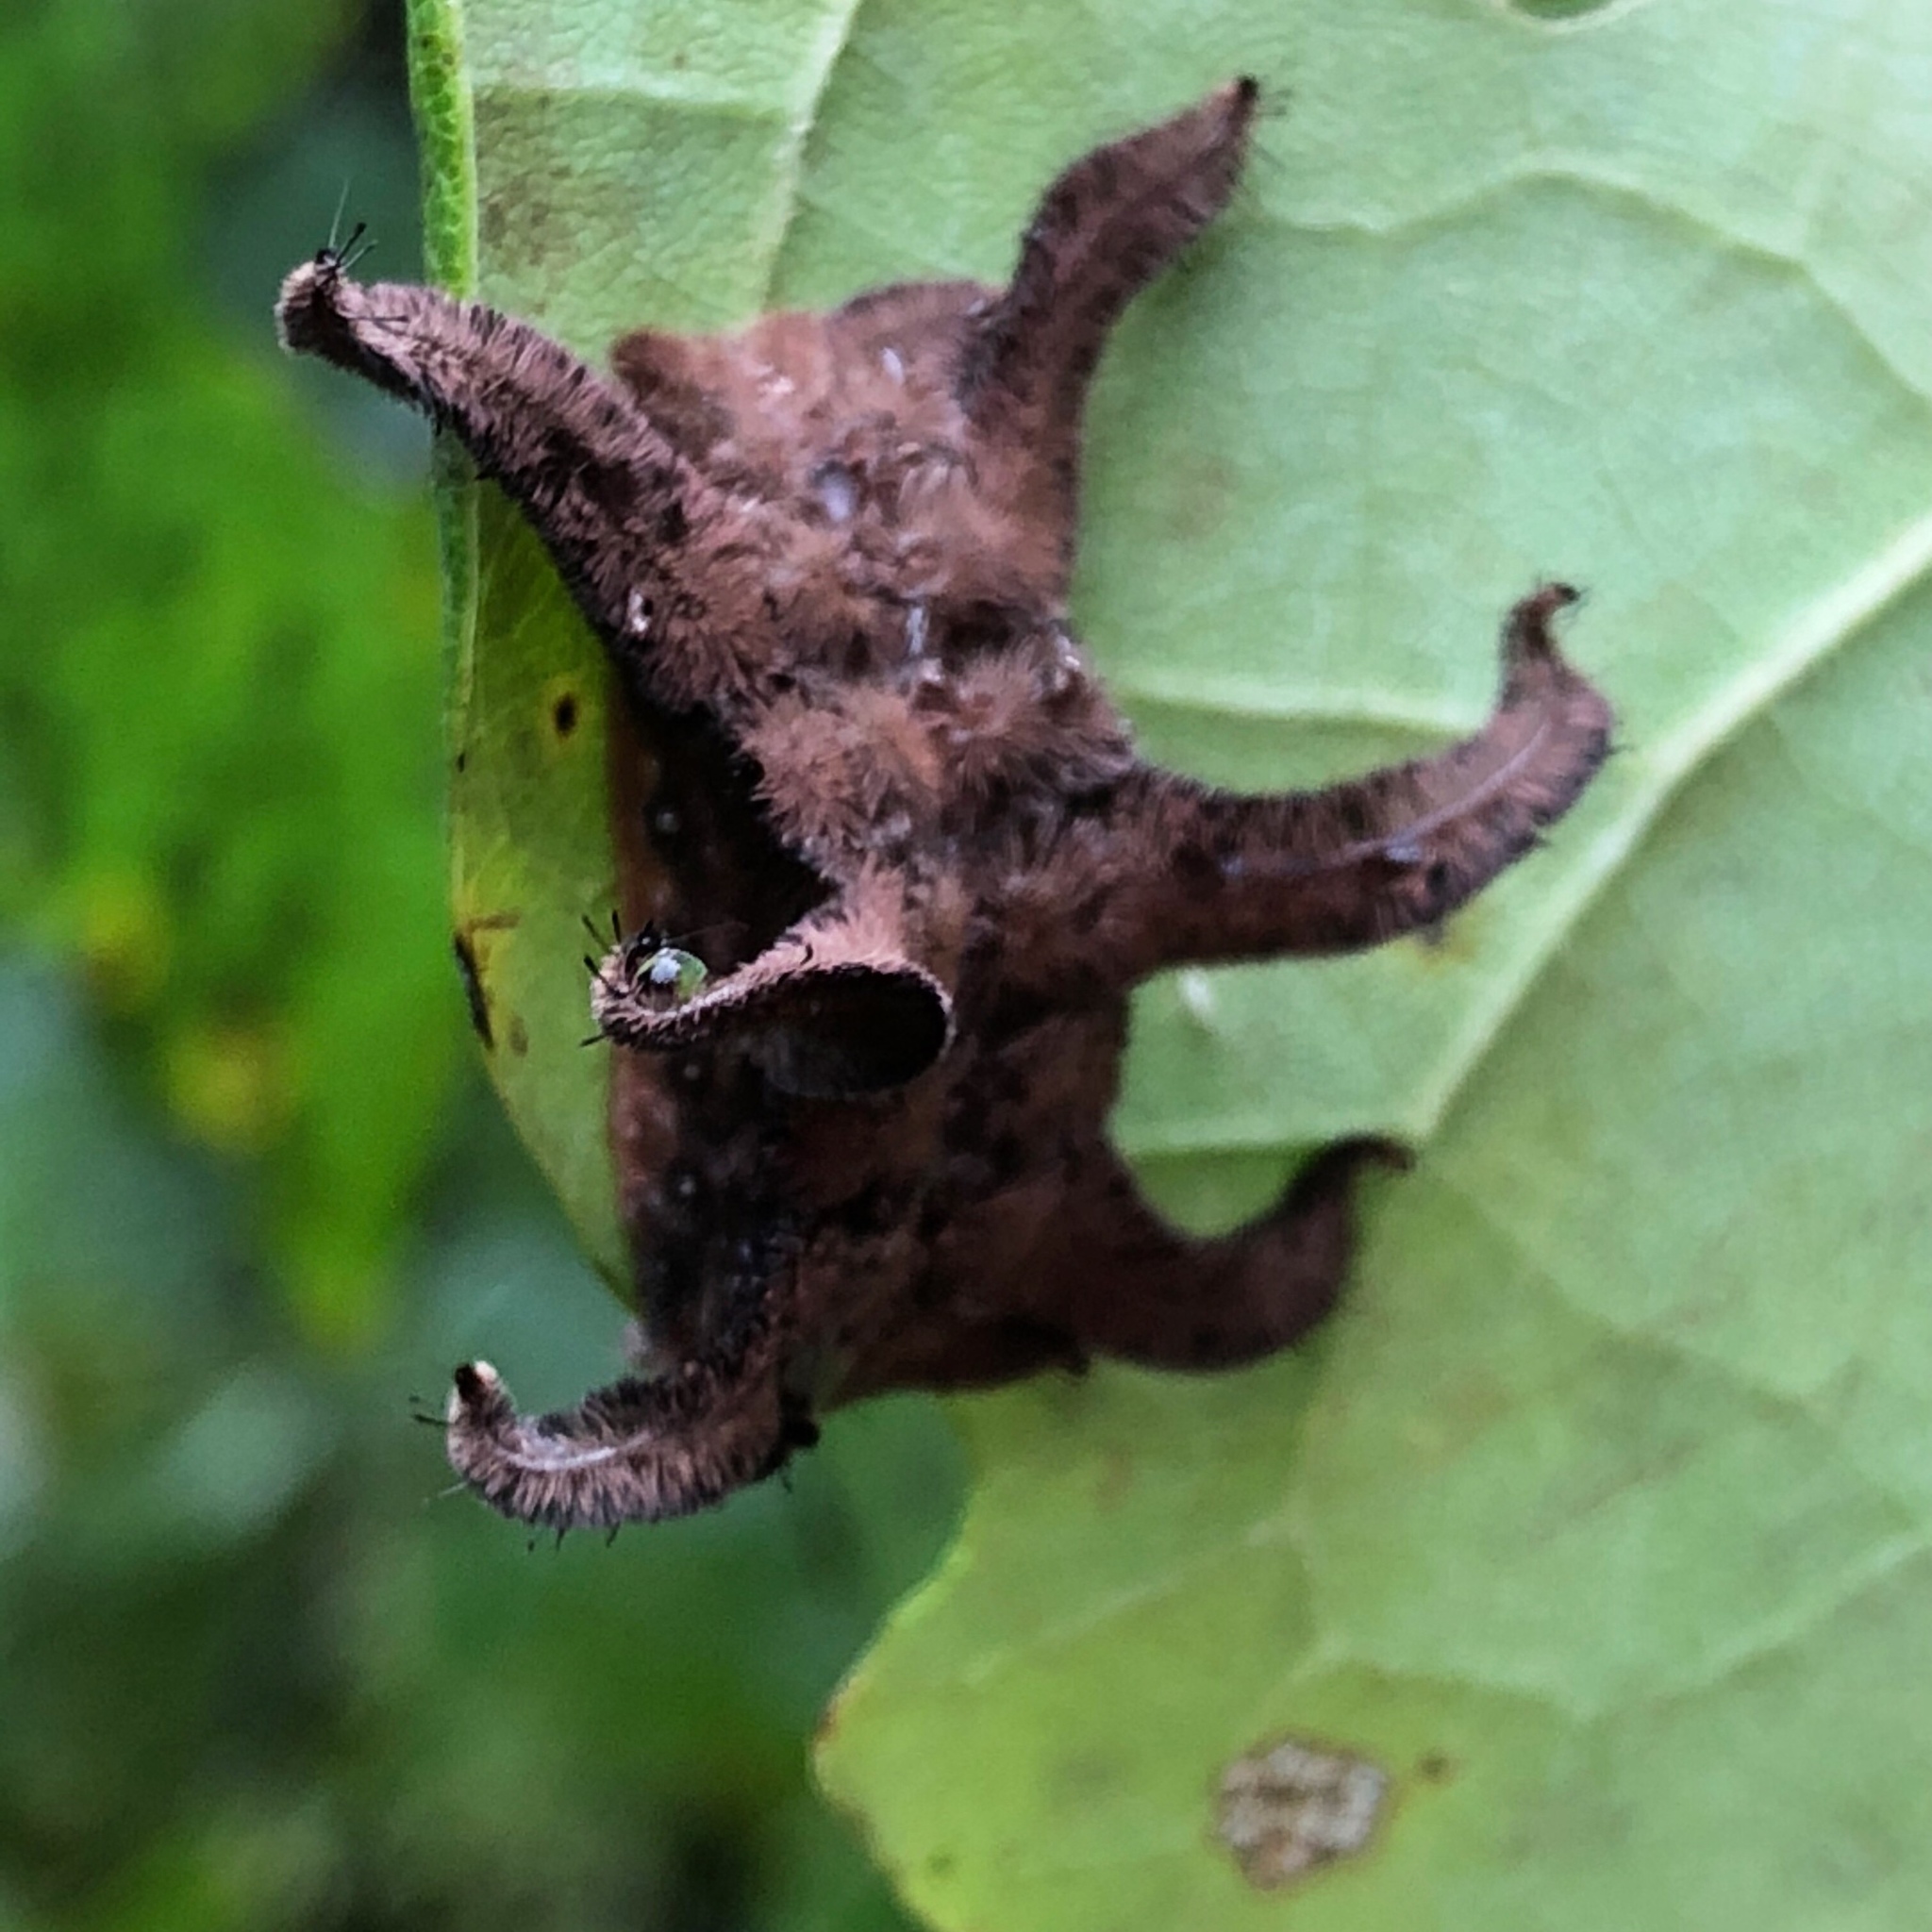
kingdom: Animalia
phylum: Arthropoda
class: Insecta
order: Lepidoptera
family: Limacodidae
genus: Phobetron
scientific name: Phobetron pithecium
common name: Hag moth
